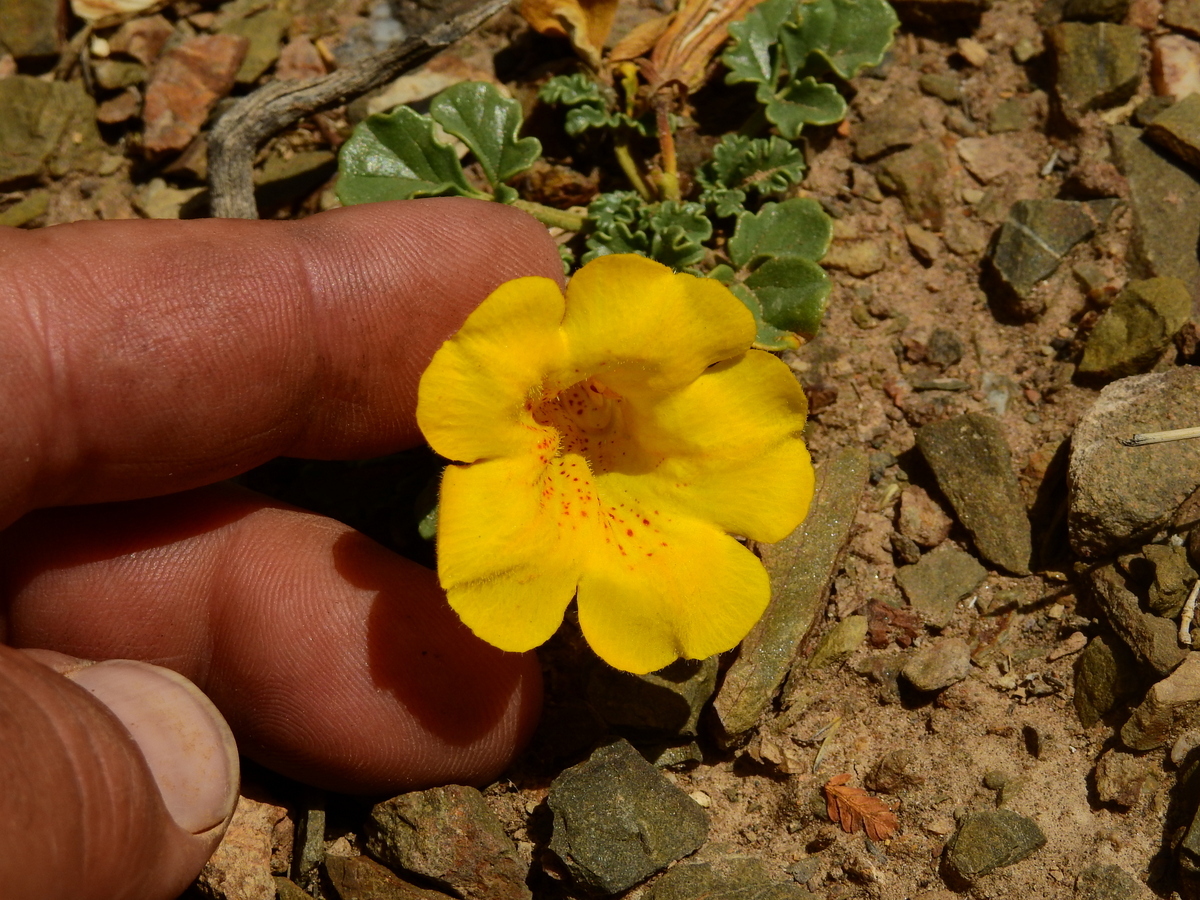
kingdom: Plantae
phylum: Tracheophyta
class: Magnoliopsida
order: Lamiales
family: Bignoniaceae
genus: Argylia
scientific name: Argylia uspallatensis
